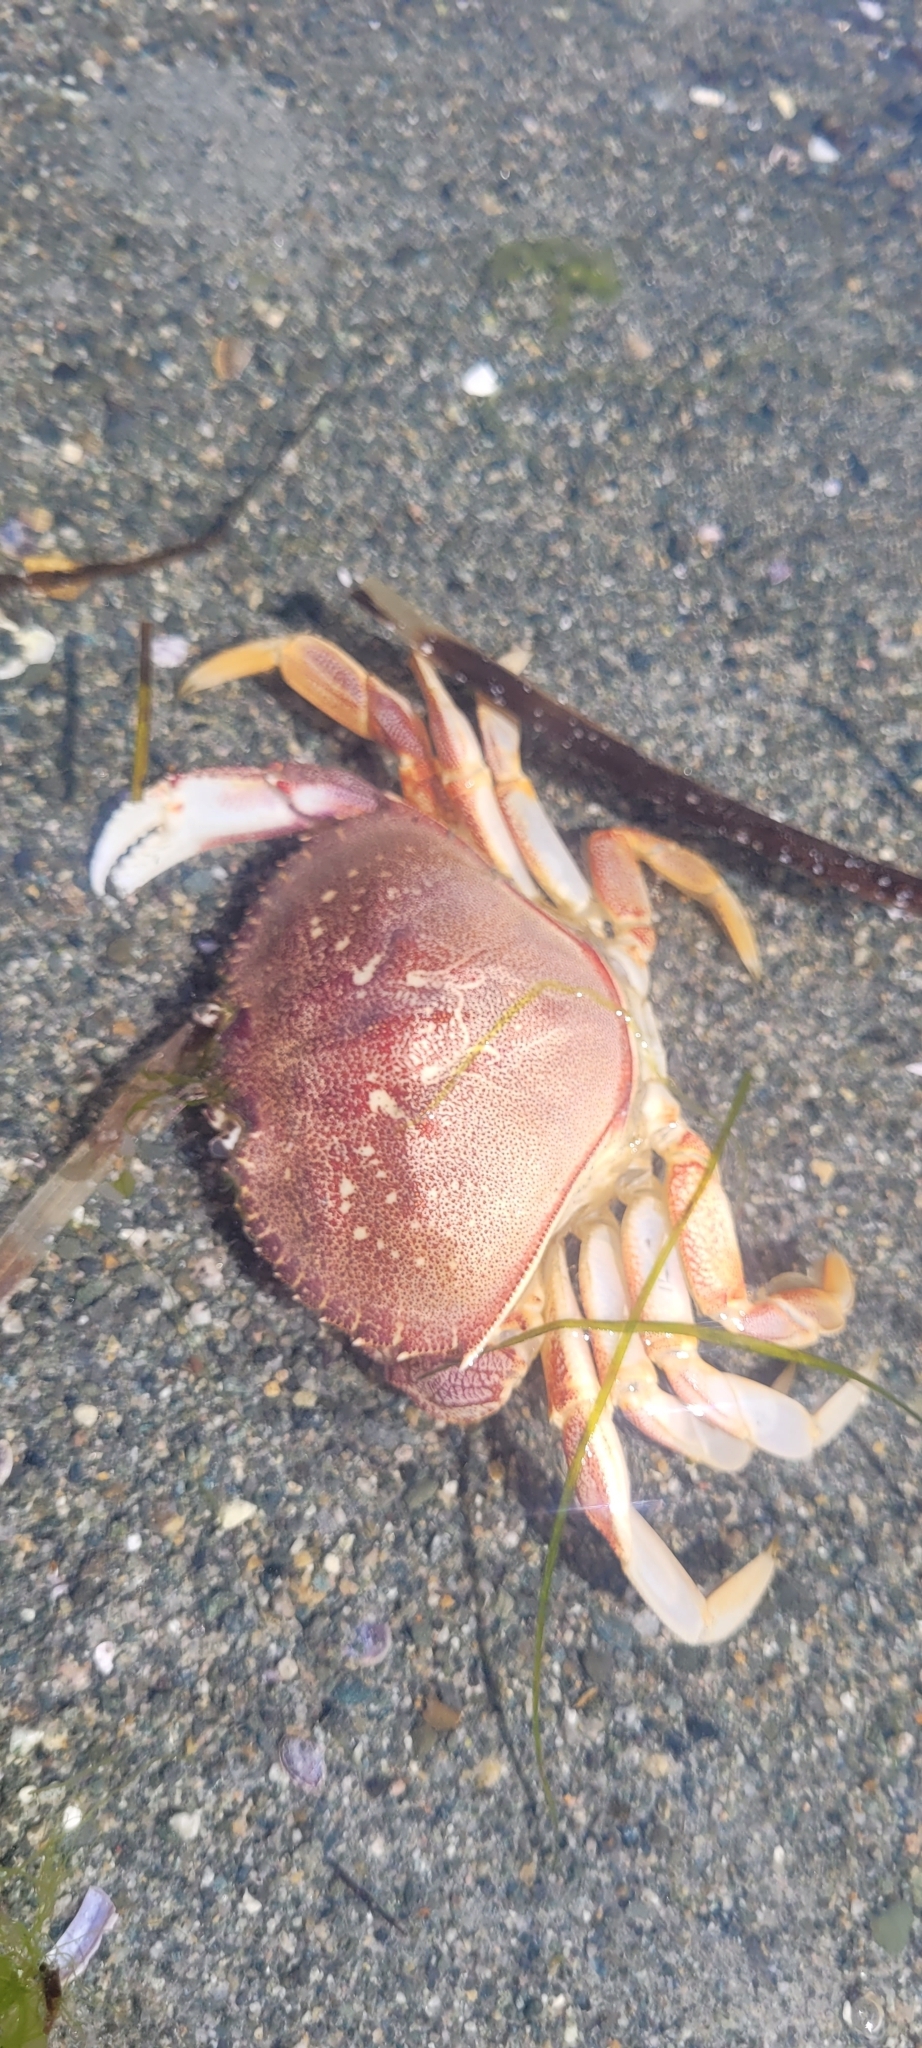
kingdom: Animalia
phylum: Arthropoda
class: Malacostraca
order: Decapoda
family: Cancridae
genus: Metacarcinus
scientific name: Metacarcinus magister
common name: Californian crab
